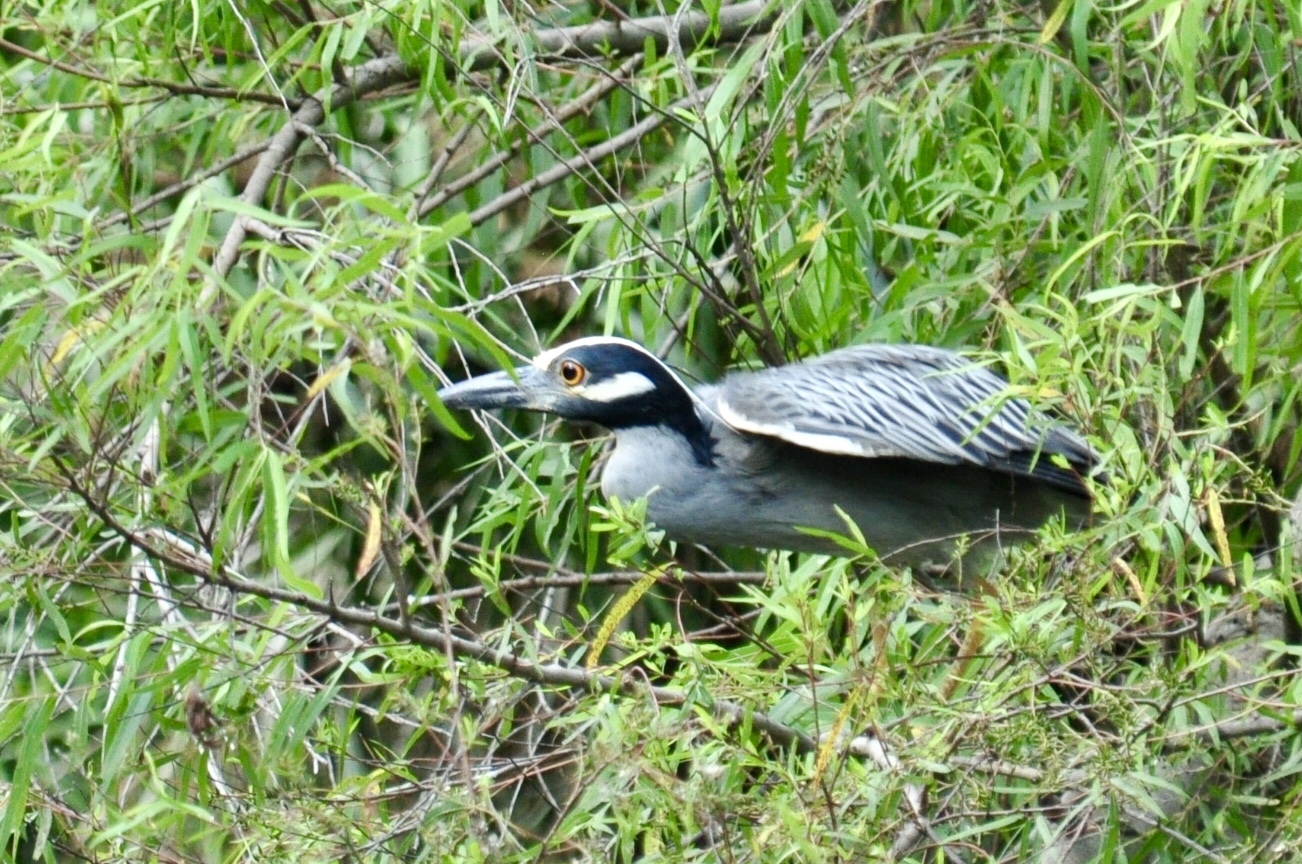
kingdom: Animalia
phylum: Chordata
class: Aves
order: Pelecaniformes
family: Ardeidae
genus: Nyctanassa
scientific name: Nyctanassa violacea
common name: Yellow-crowned night heron
